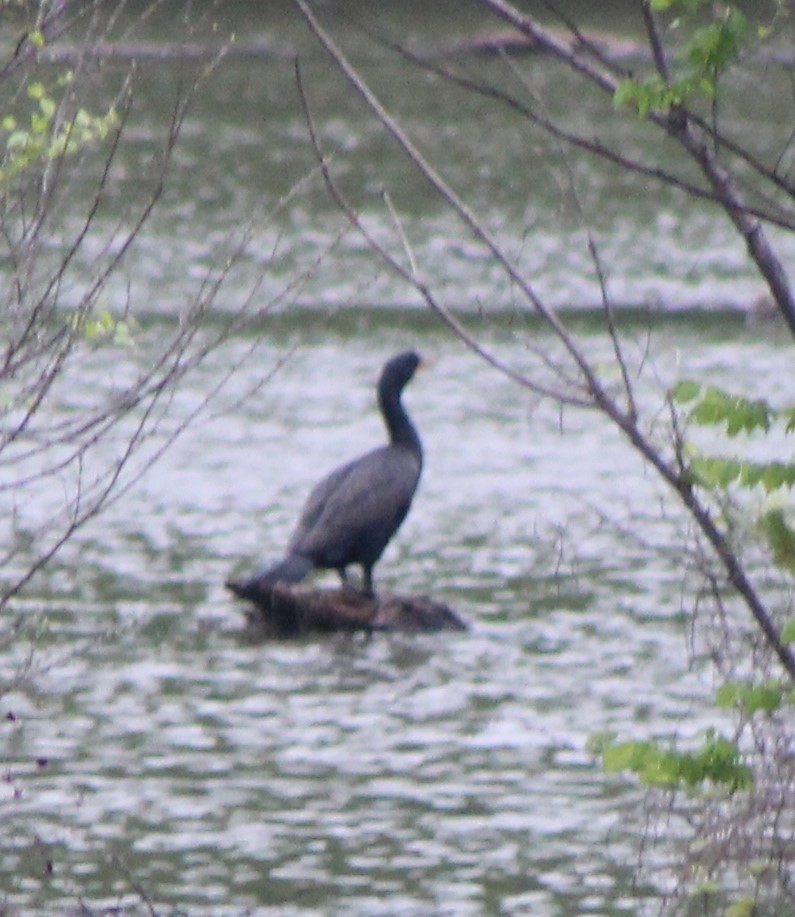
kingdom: Animalia
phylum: Chordata
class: Aves
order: Suliformes
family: Phalacrocoracidae
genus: Phalacrocorax
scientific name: Phalacrocorax auritus
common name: Double-crested cormorant
